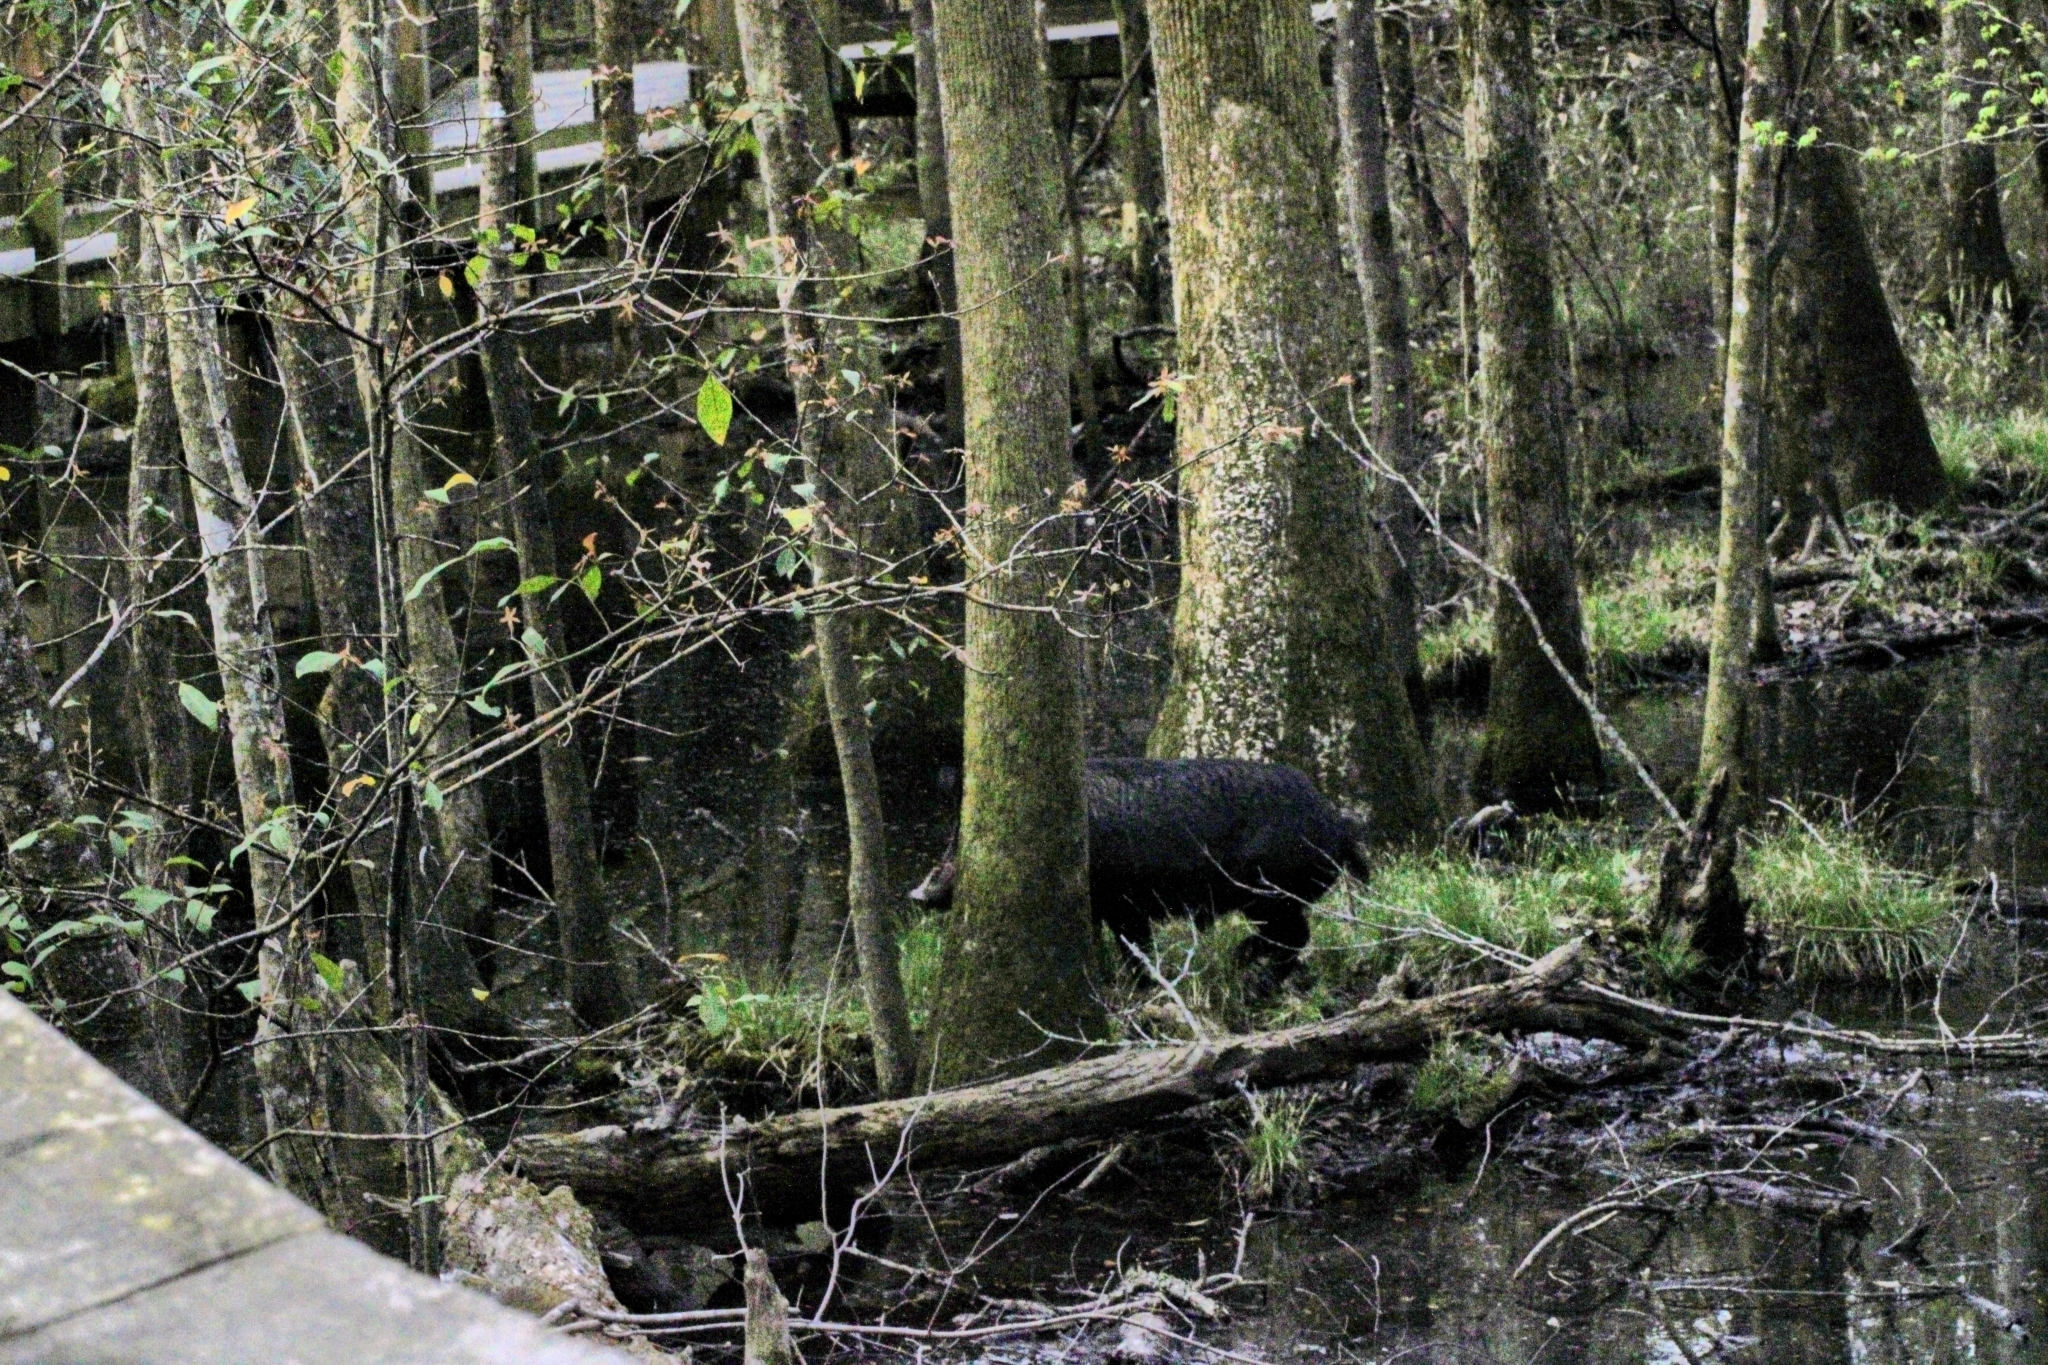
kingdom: Animalia
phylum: Chordata
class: Mammalia
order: Artiodactyla
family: Suidae
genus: Sus
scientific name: Sus scrofa
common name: Wild boar
